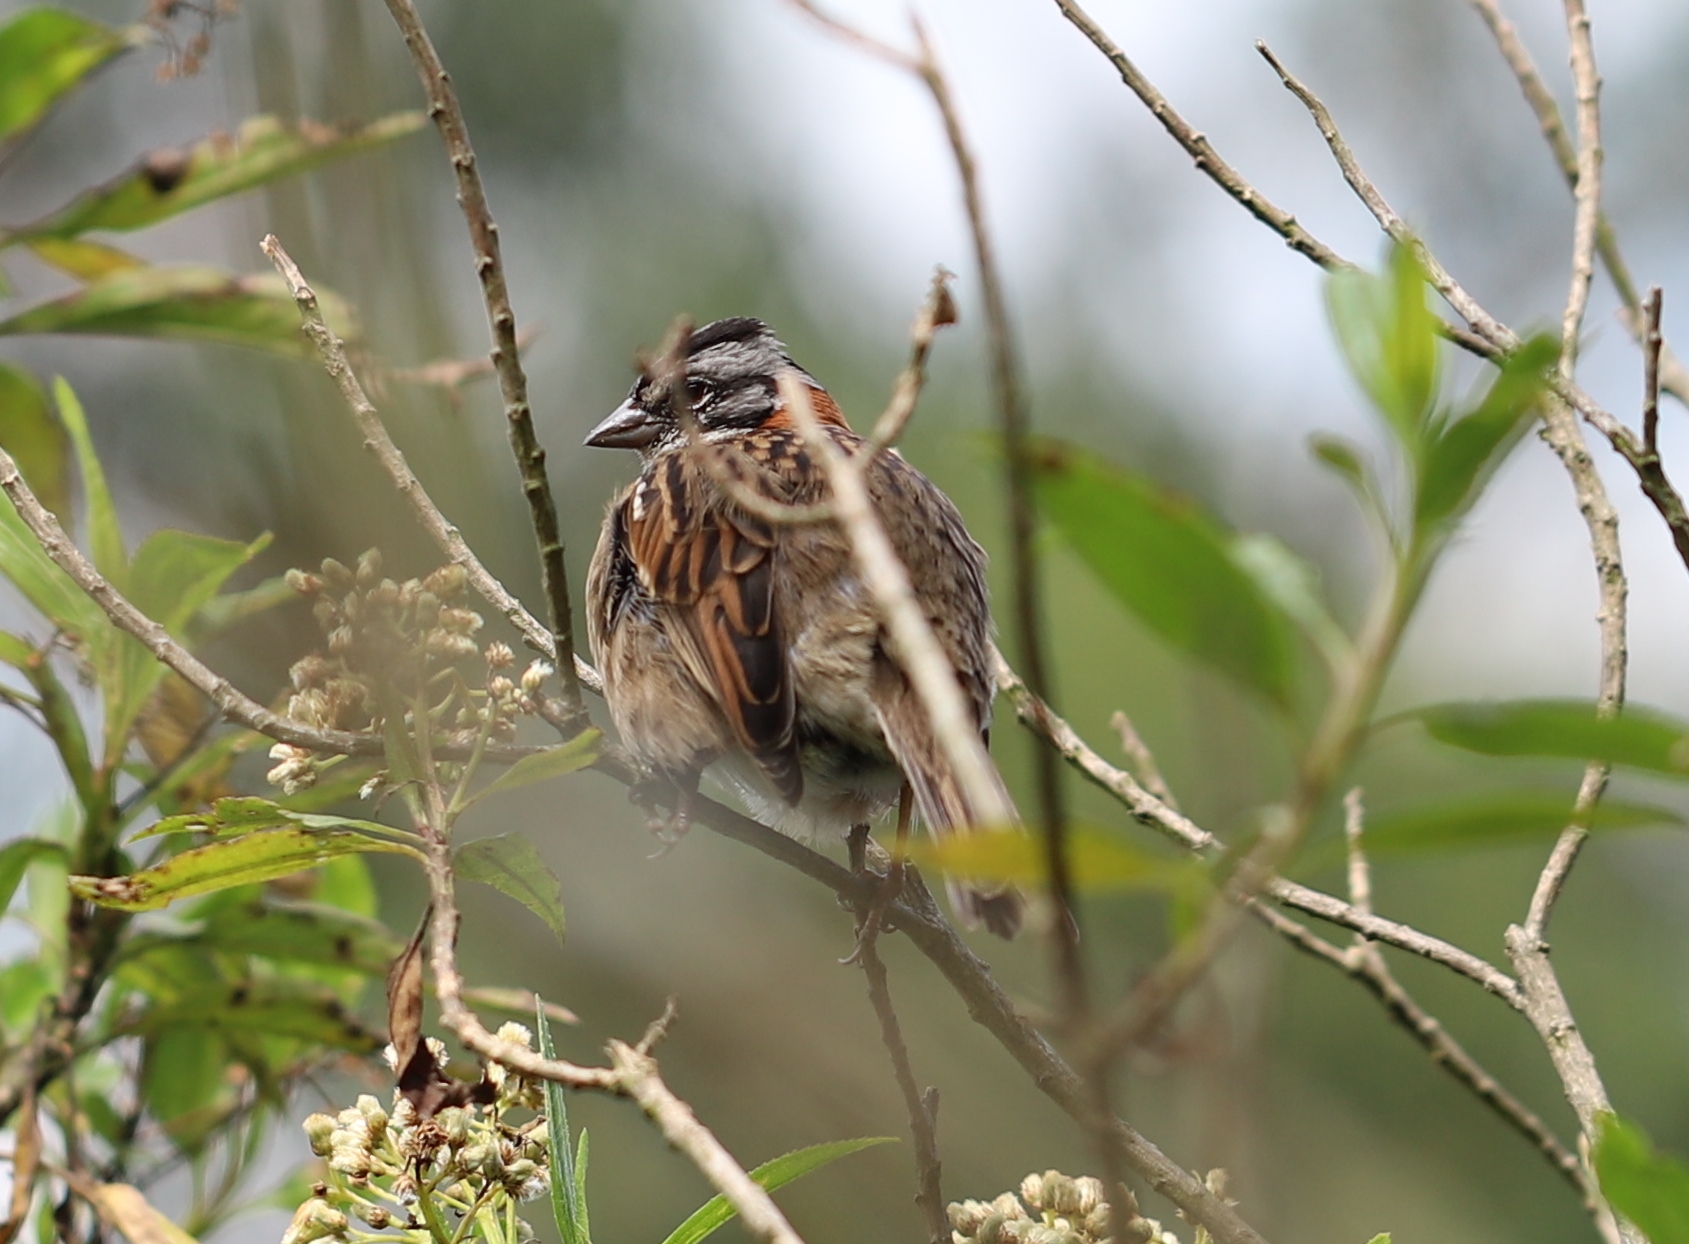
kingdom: Animalia
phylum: Chordata
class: Aves
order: Passeriformes
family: Passerellidae
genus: Zonotrichia
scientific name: Zonotrichia capensis
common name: Rufous-collared sparrow
